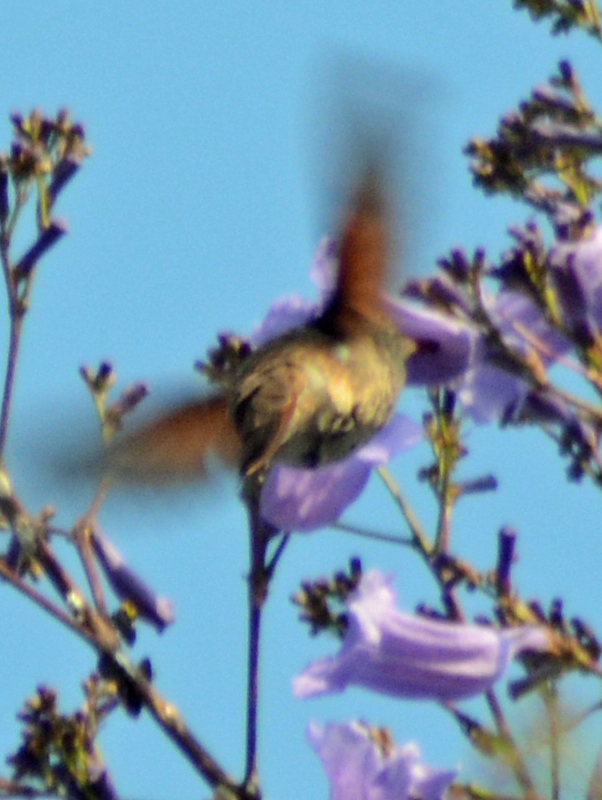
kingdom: Animalia
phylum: Chordata
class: Aves
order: Apodiformes
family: Trochilidae
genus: Saucerottia
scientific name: Saucerottia beryllina
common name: Berylline hummingbird
